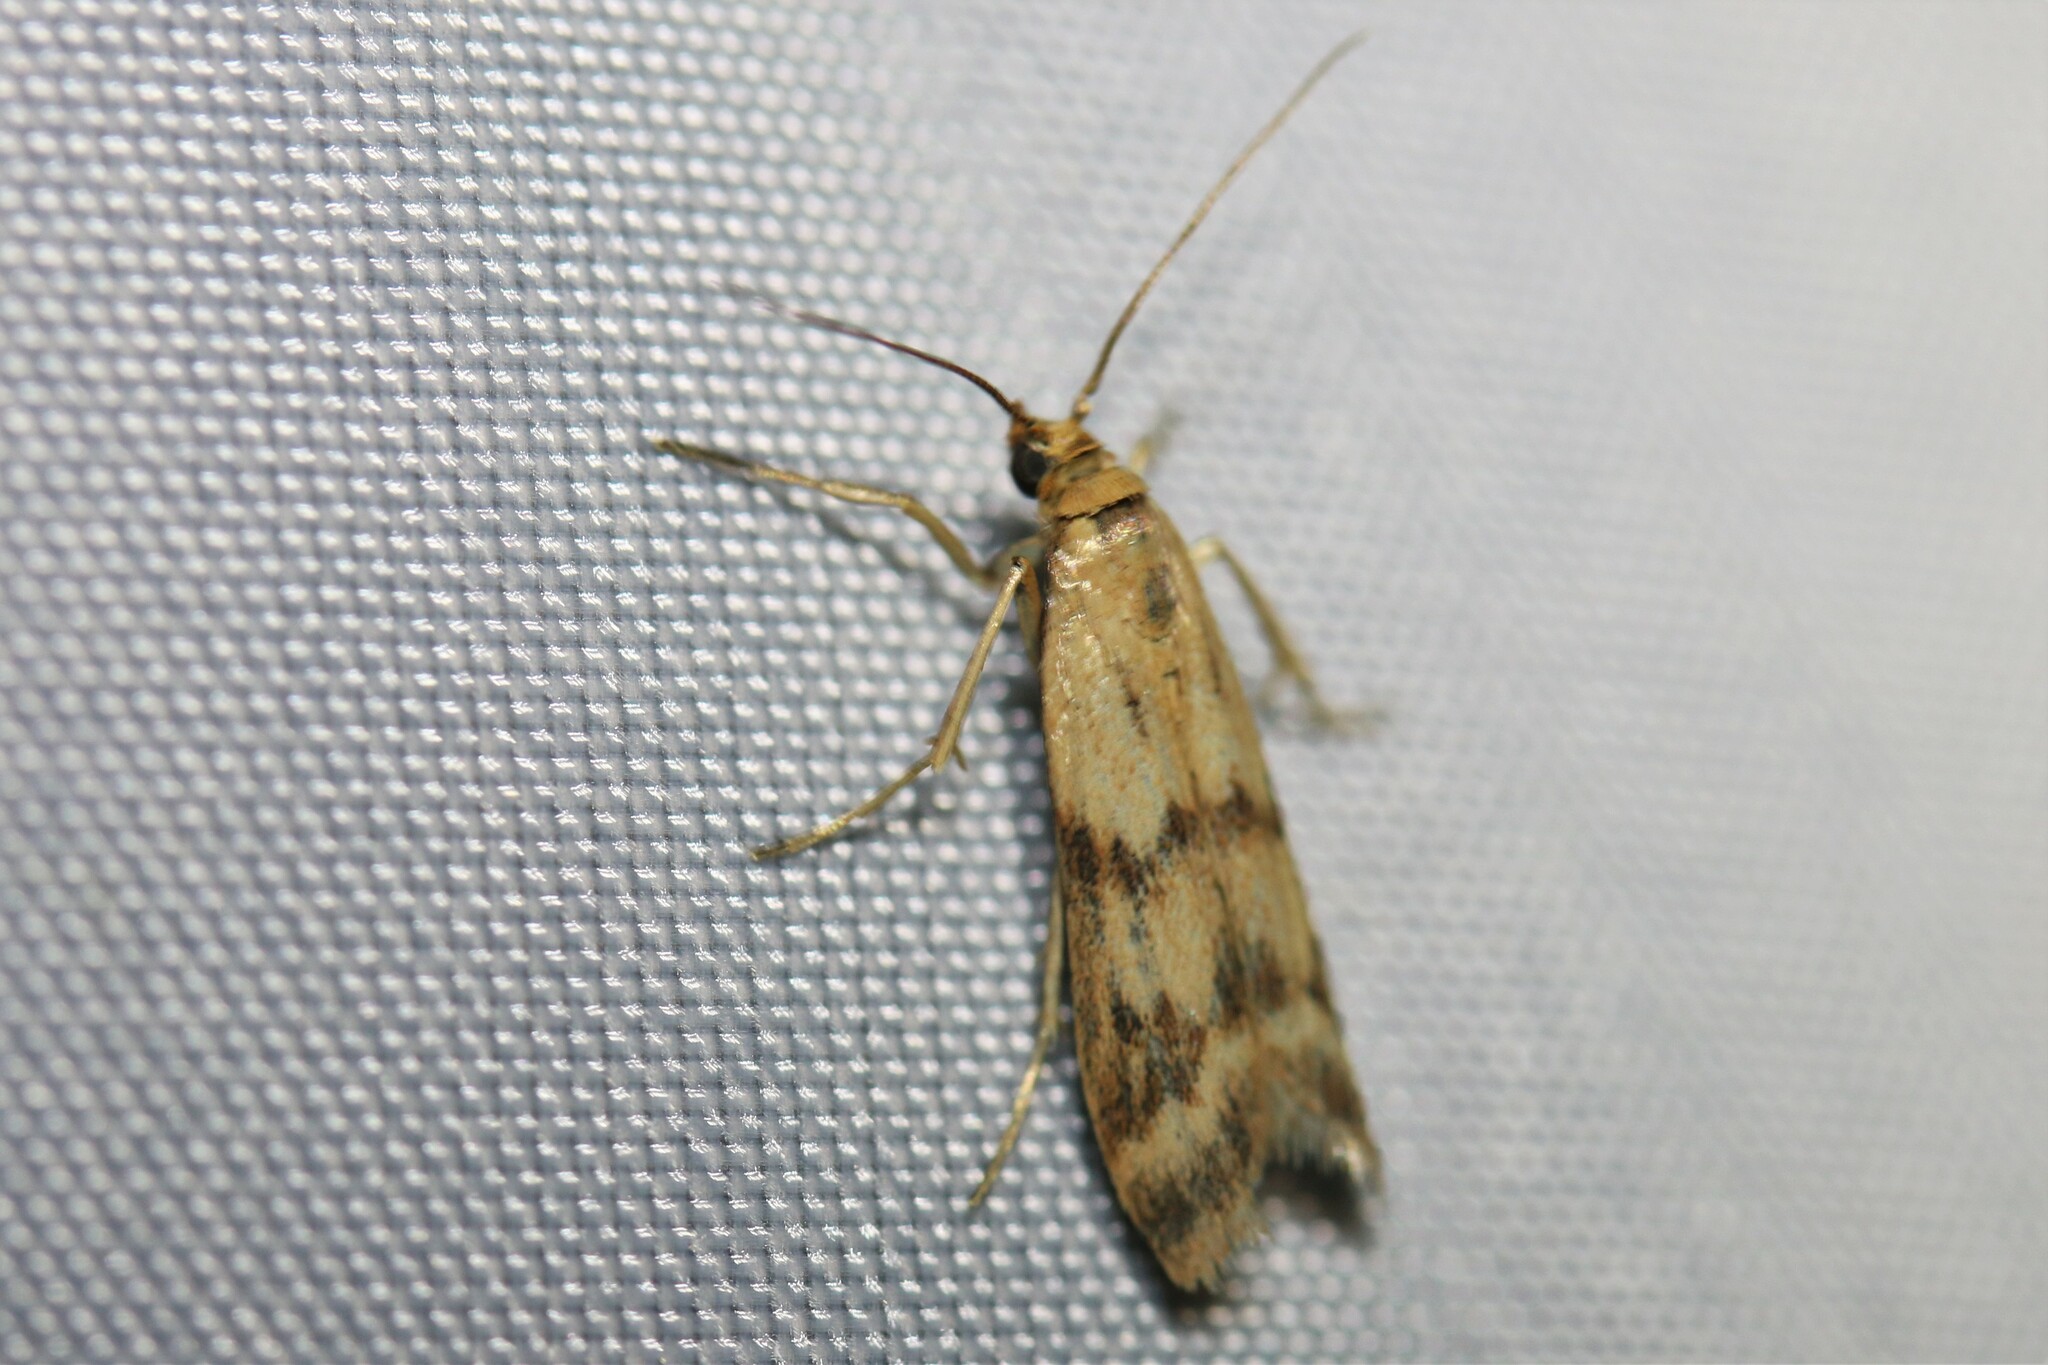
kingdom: Animalia
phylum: Arthropoda
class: Insecta
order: Lepidoptera
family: Pyralidae
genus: Homoeosoma
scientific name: Homoeosoma sinuella
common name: Twin-barred knot-horn
